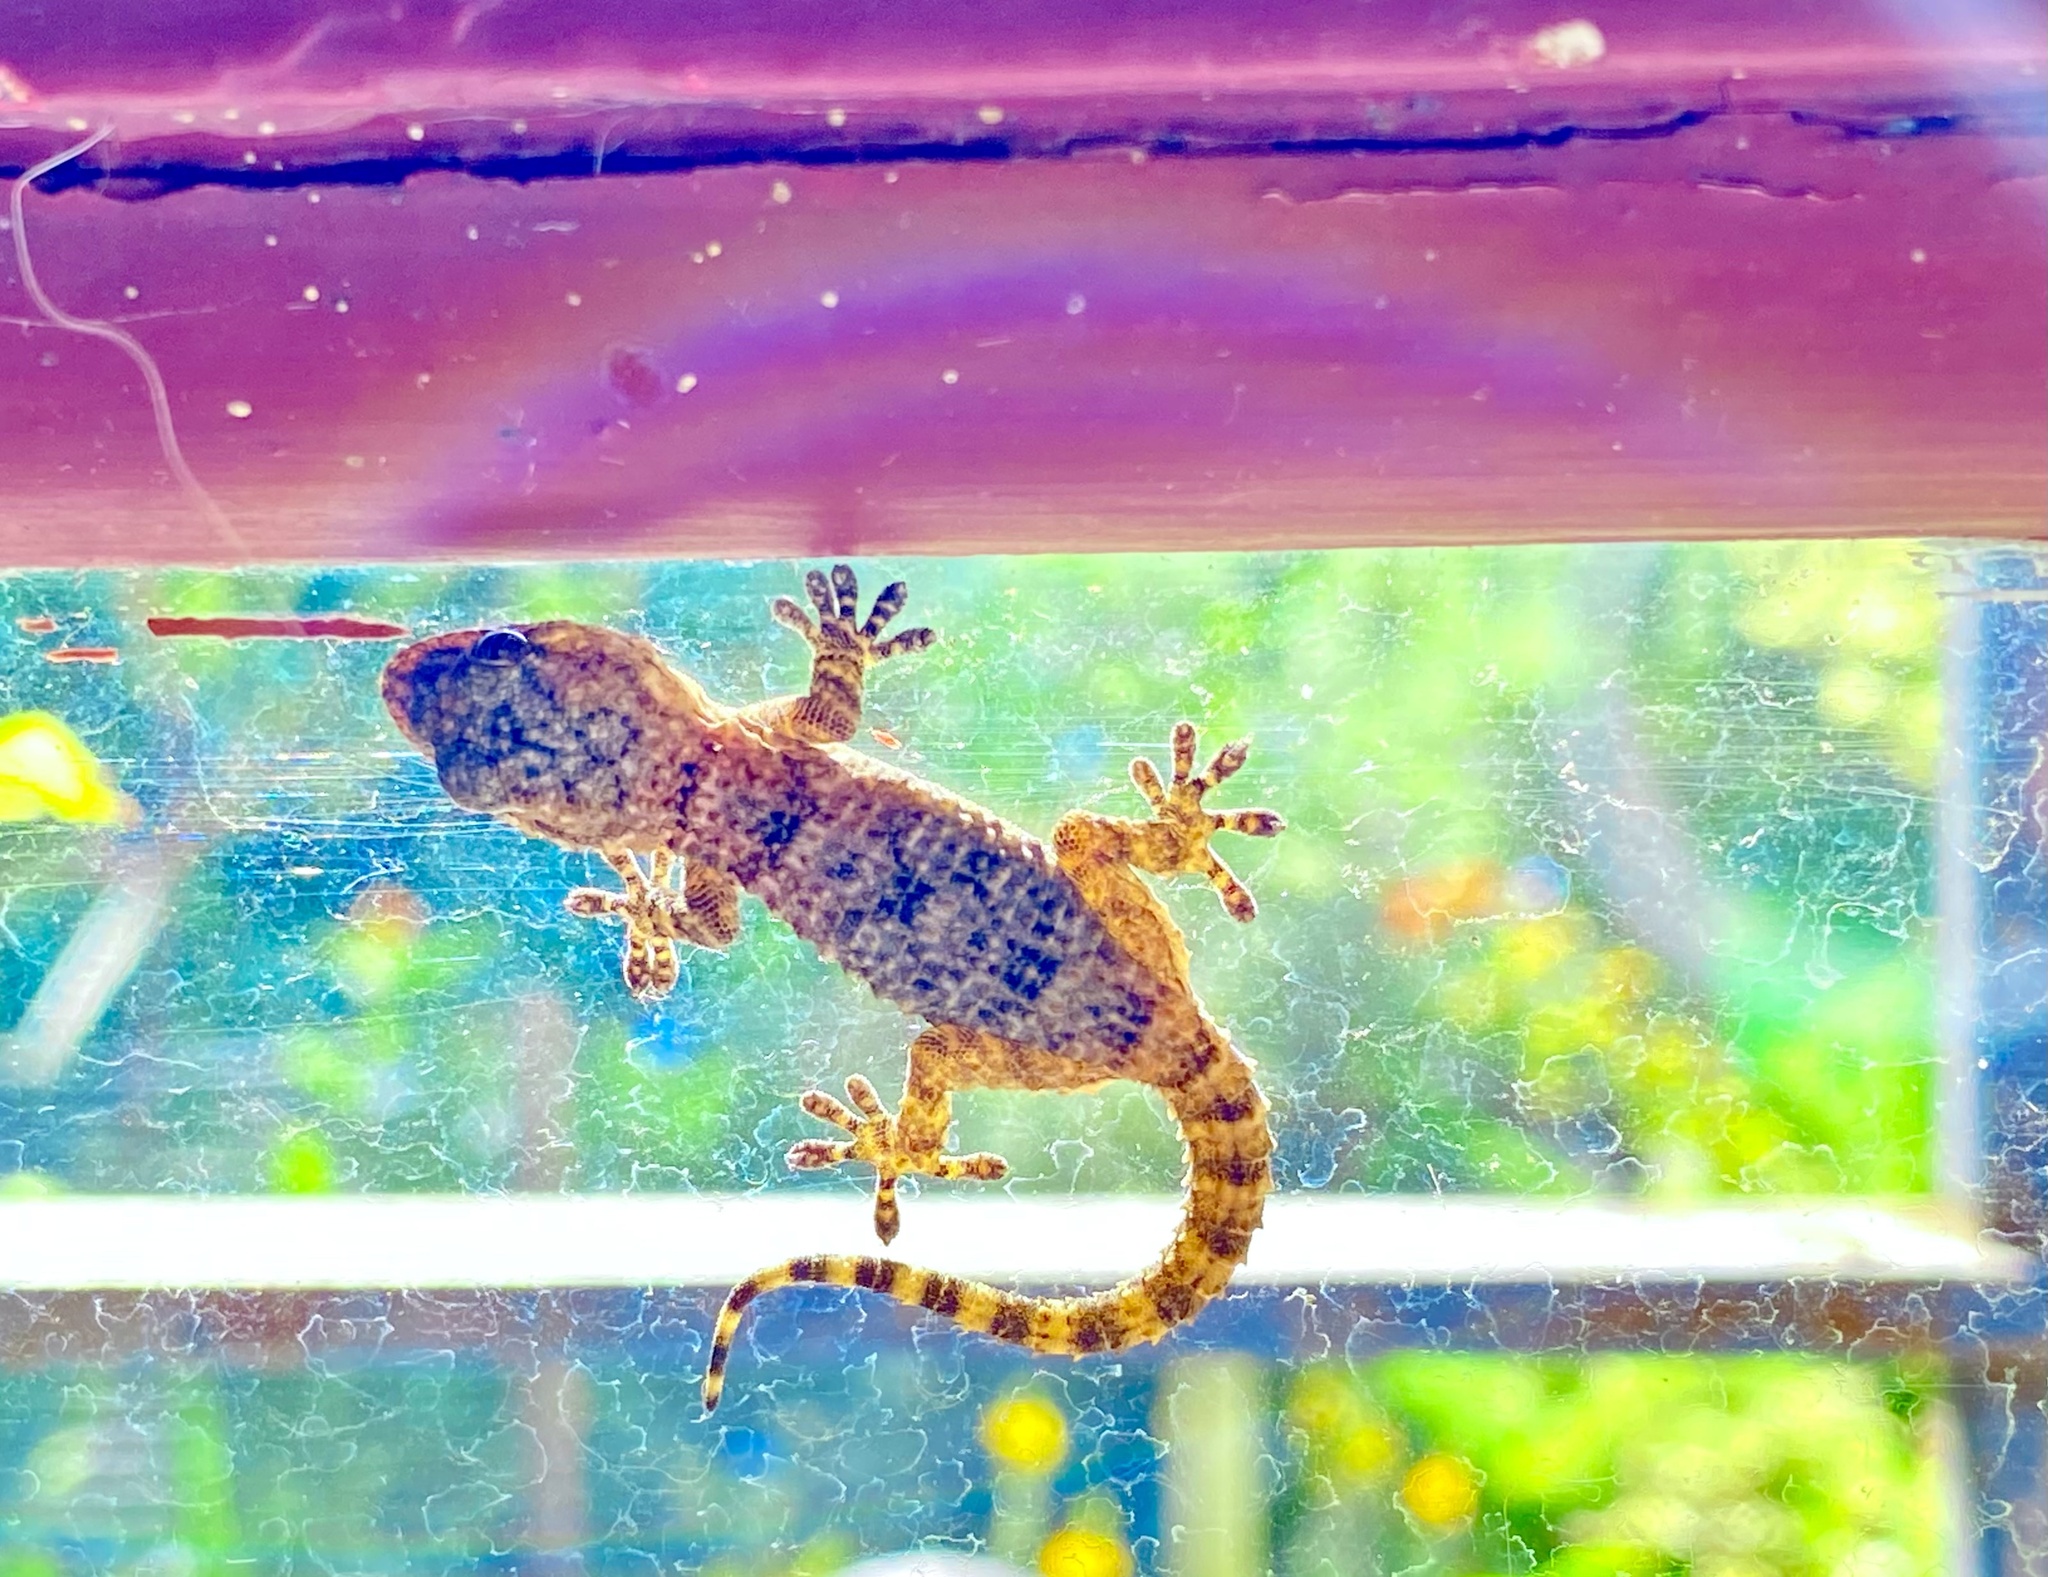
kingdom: Animalia
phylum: Chordata
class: Squamata
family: Phyllodactylidae
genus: Tarentola
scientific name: Tarentola mauritanica
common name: Moorish gecko
